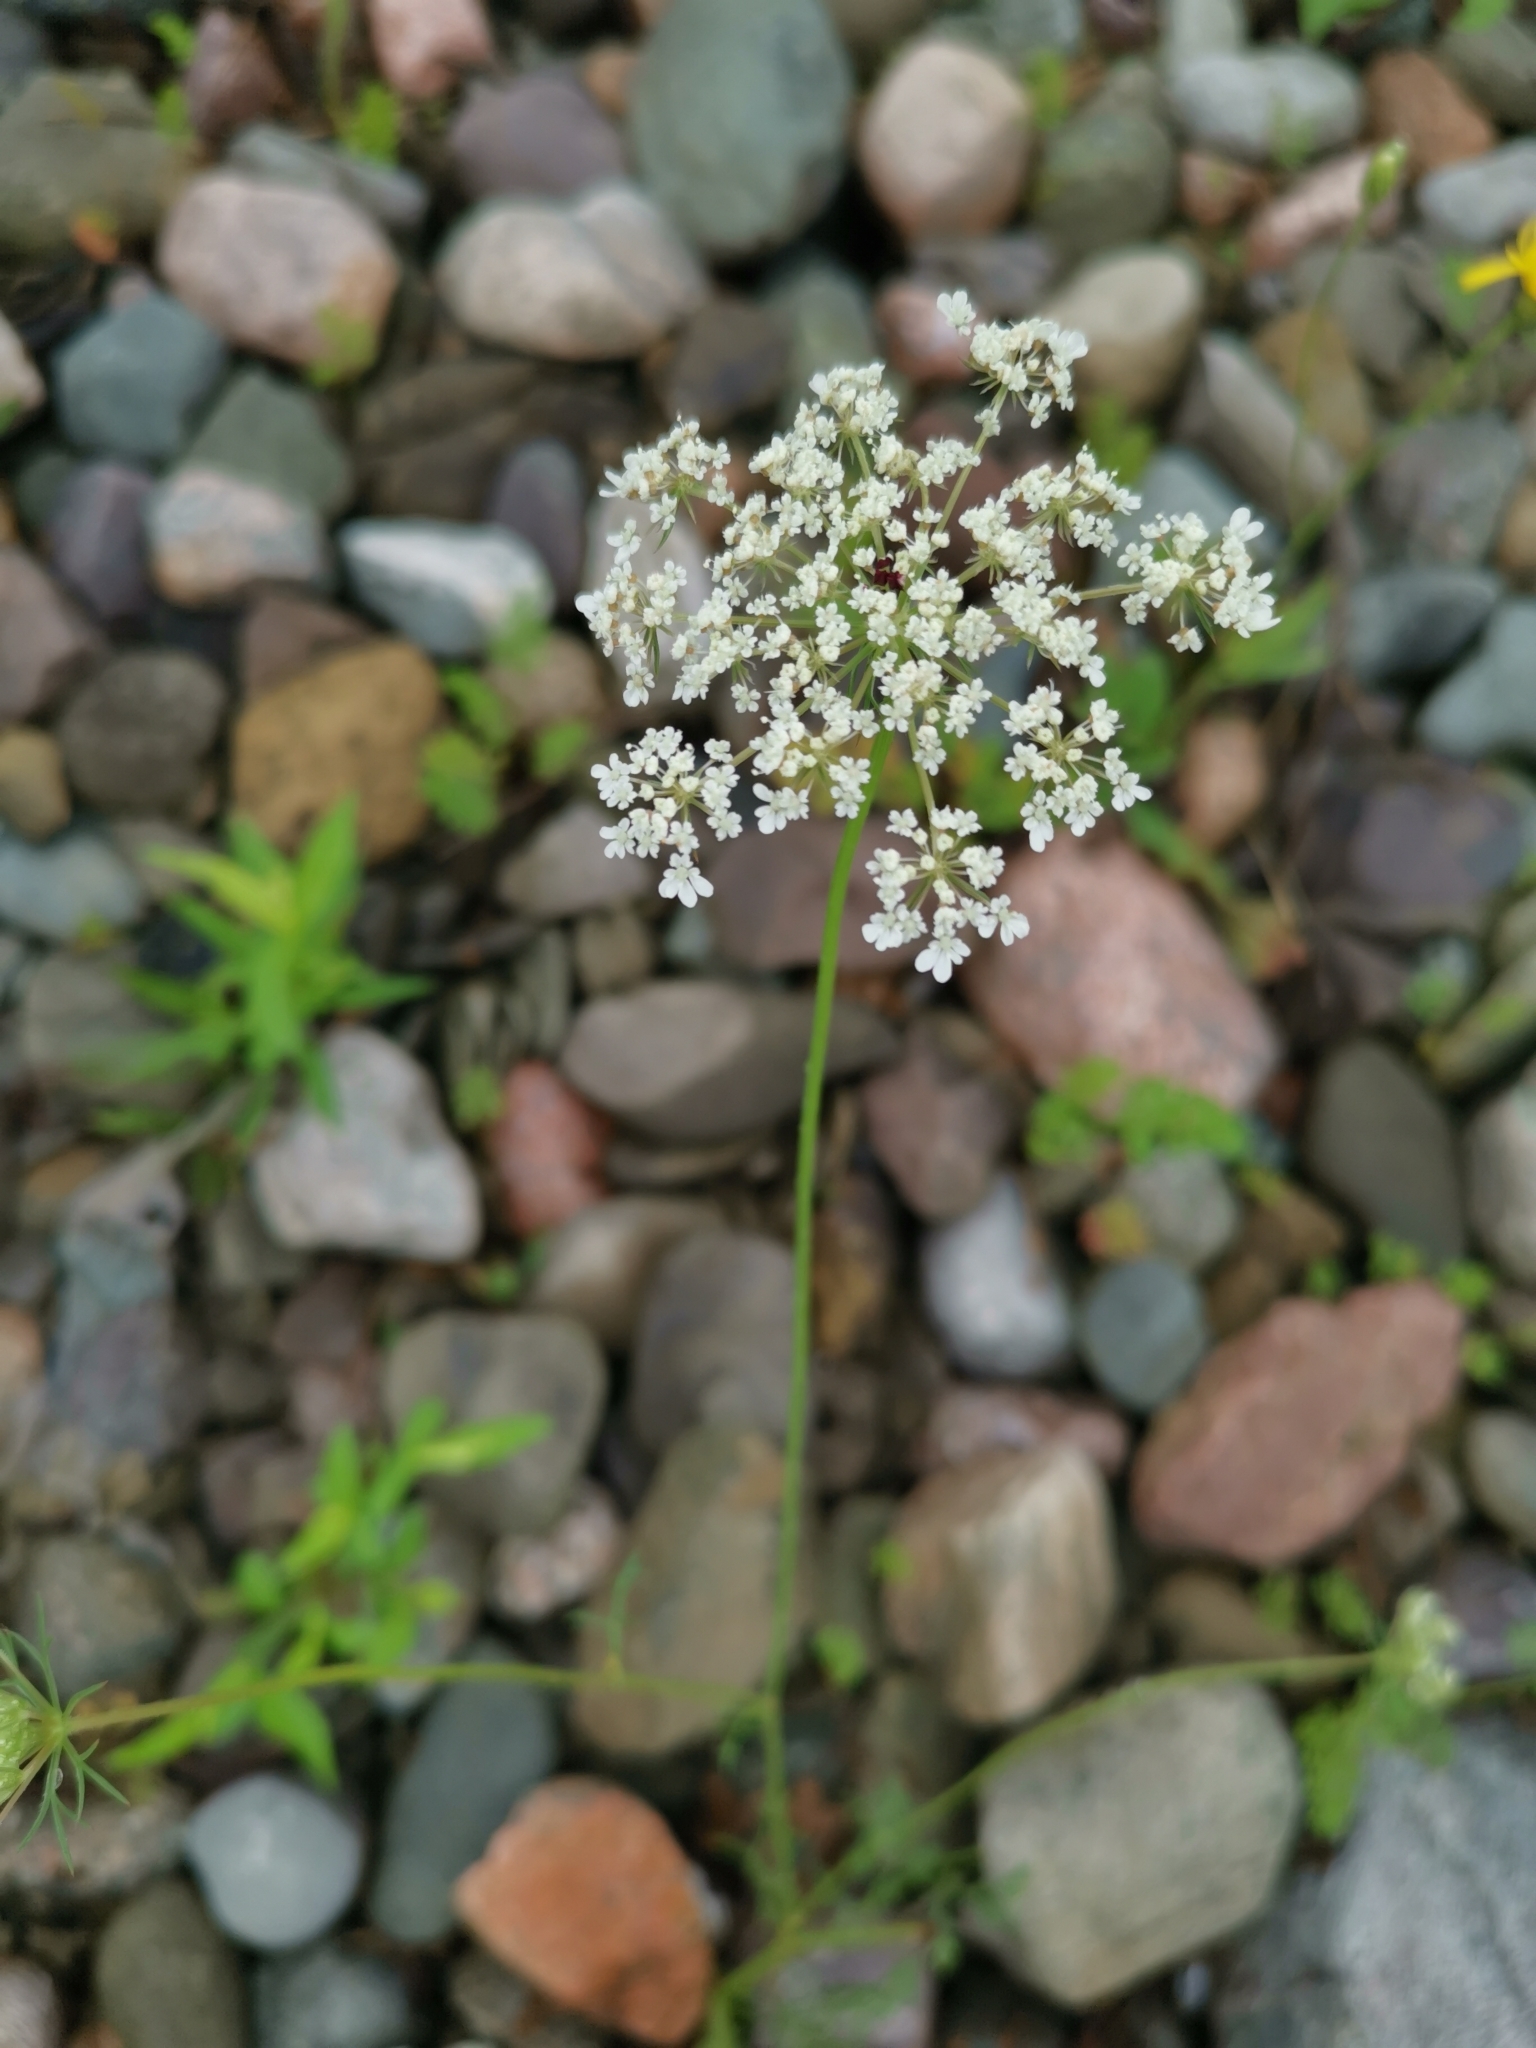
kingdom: Plantae
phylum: Tracheophyta
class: Magnoliopsida
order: Apiales
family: Apiaceae
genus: Daucus
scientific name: Daucus carota
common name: Wild carrot
